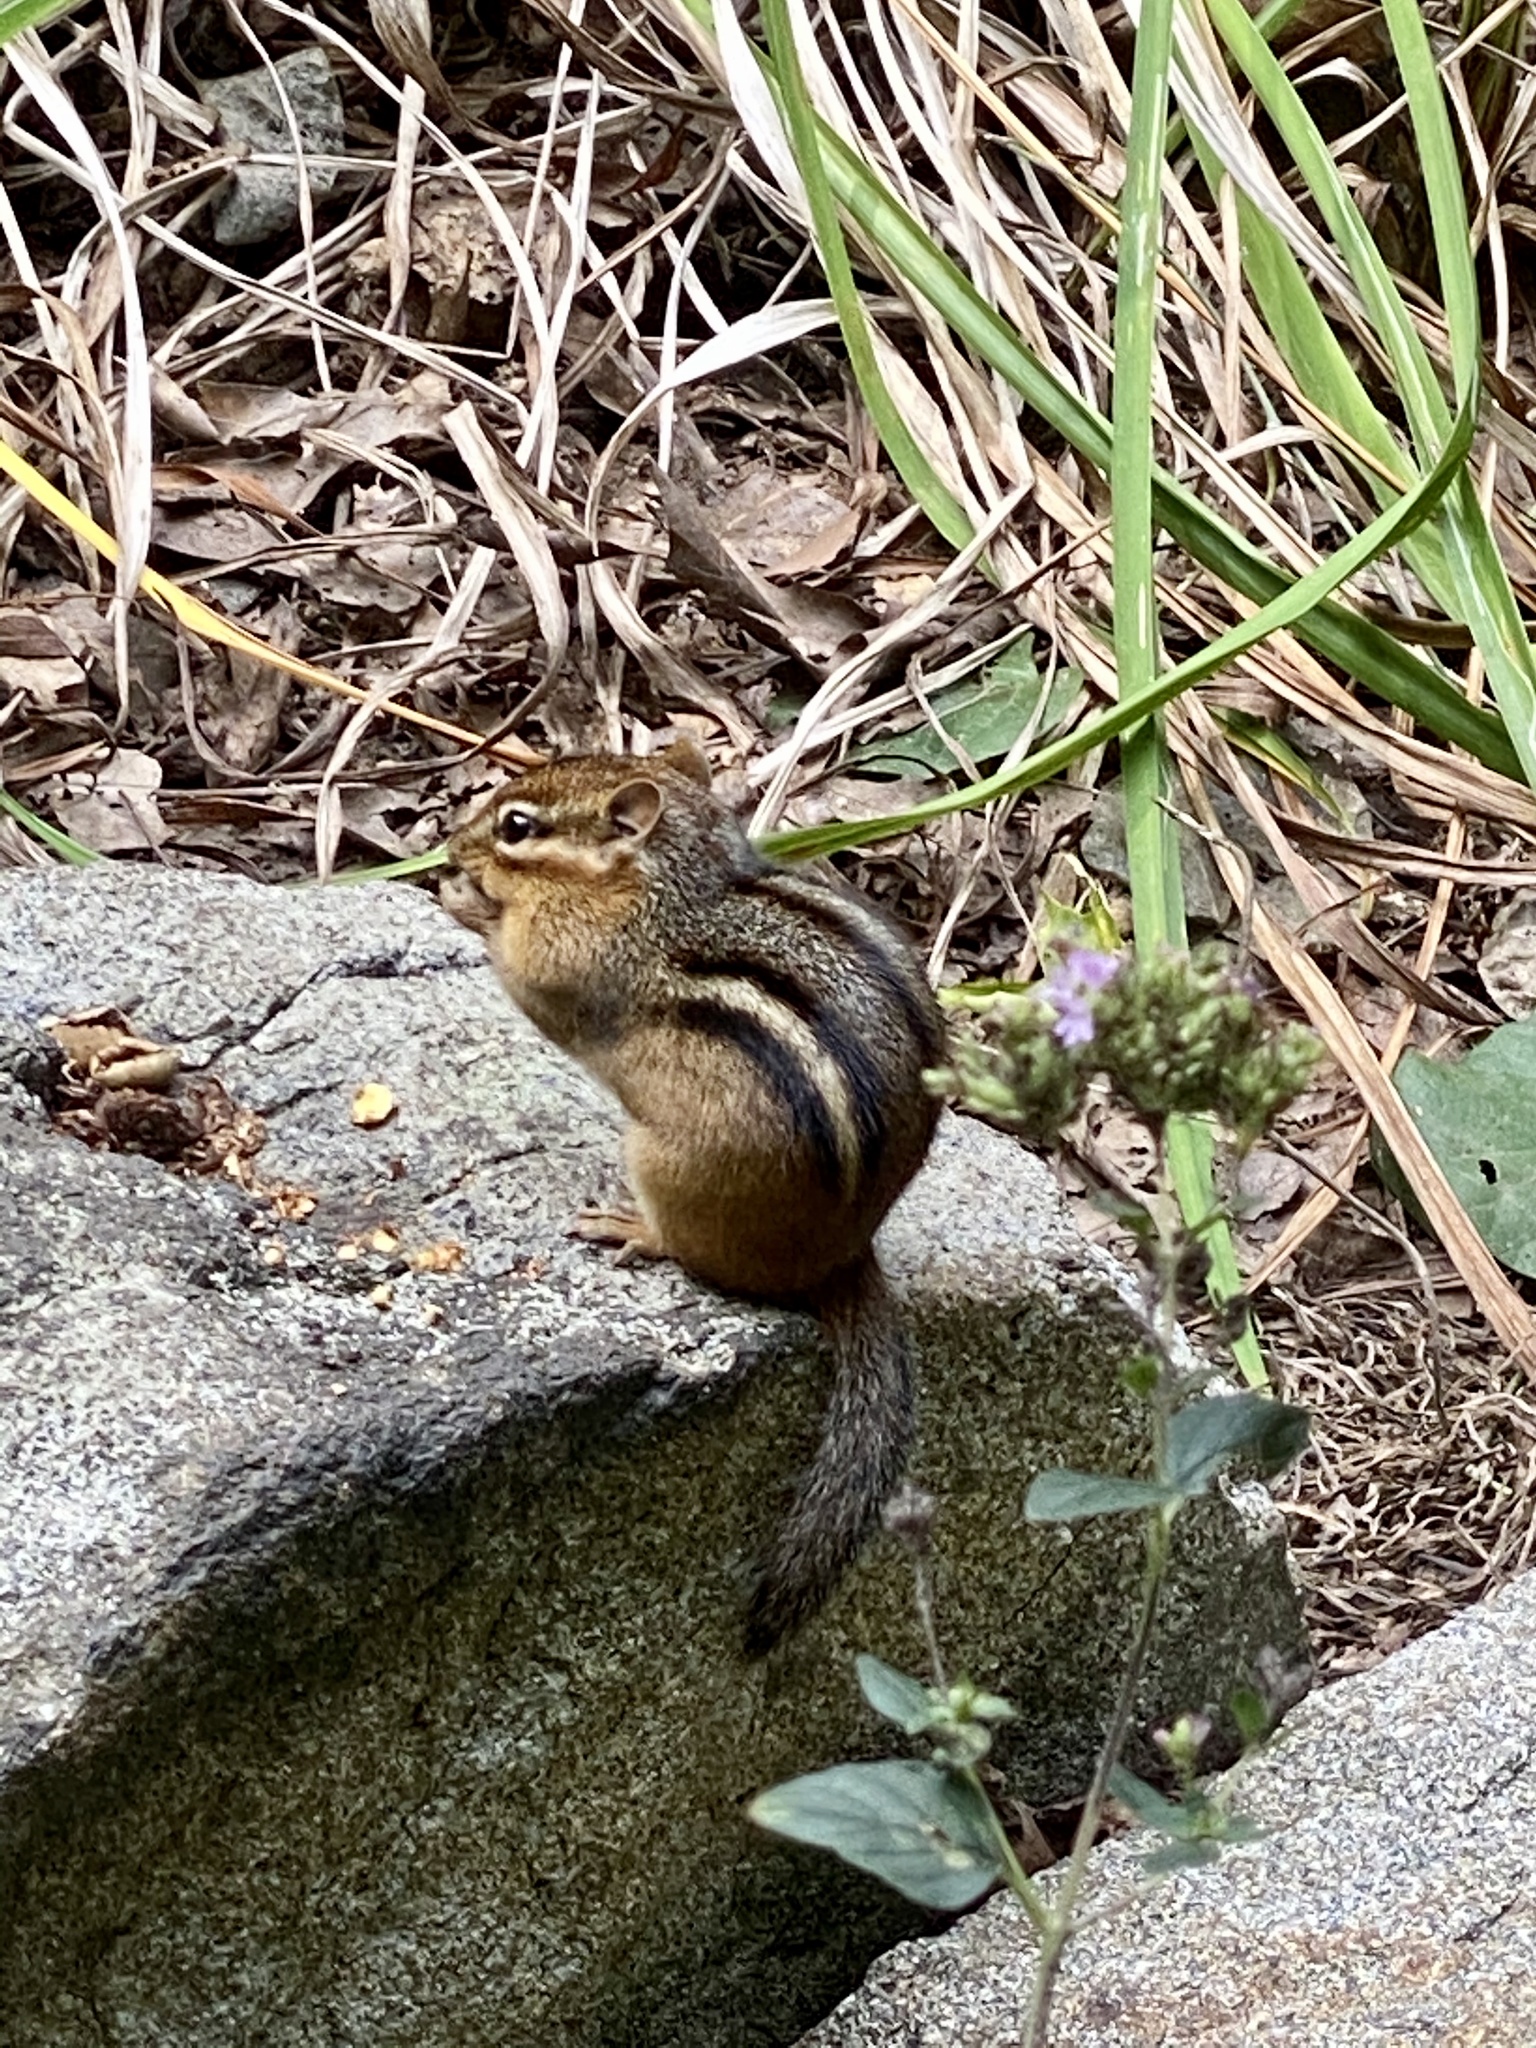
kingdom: Animalia
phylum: Chordata
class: Mammalia
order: Rodentia
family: Sciuridae
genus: Tamias
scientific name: Tamias striatus
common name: Eastern chipmunk
